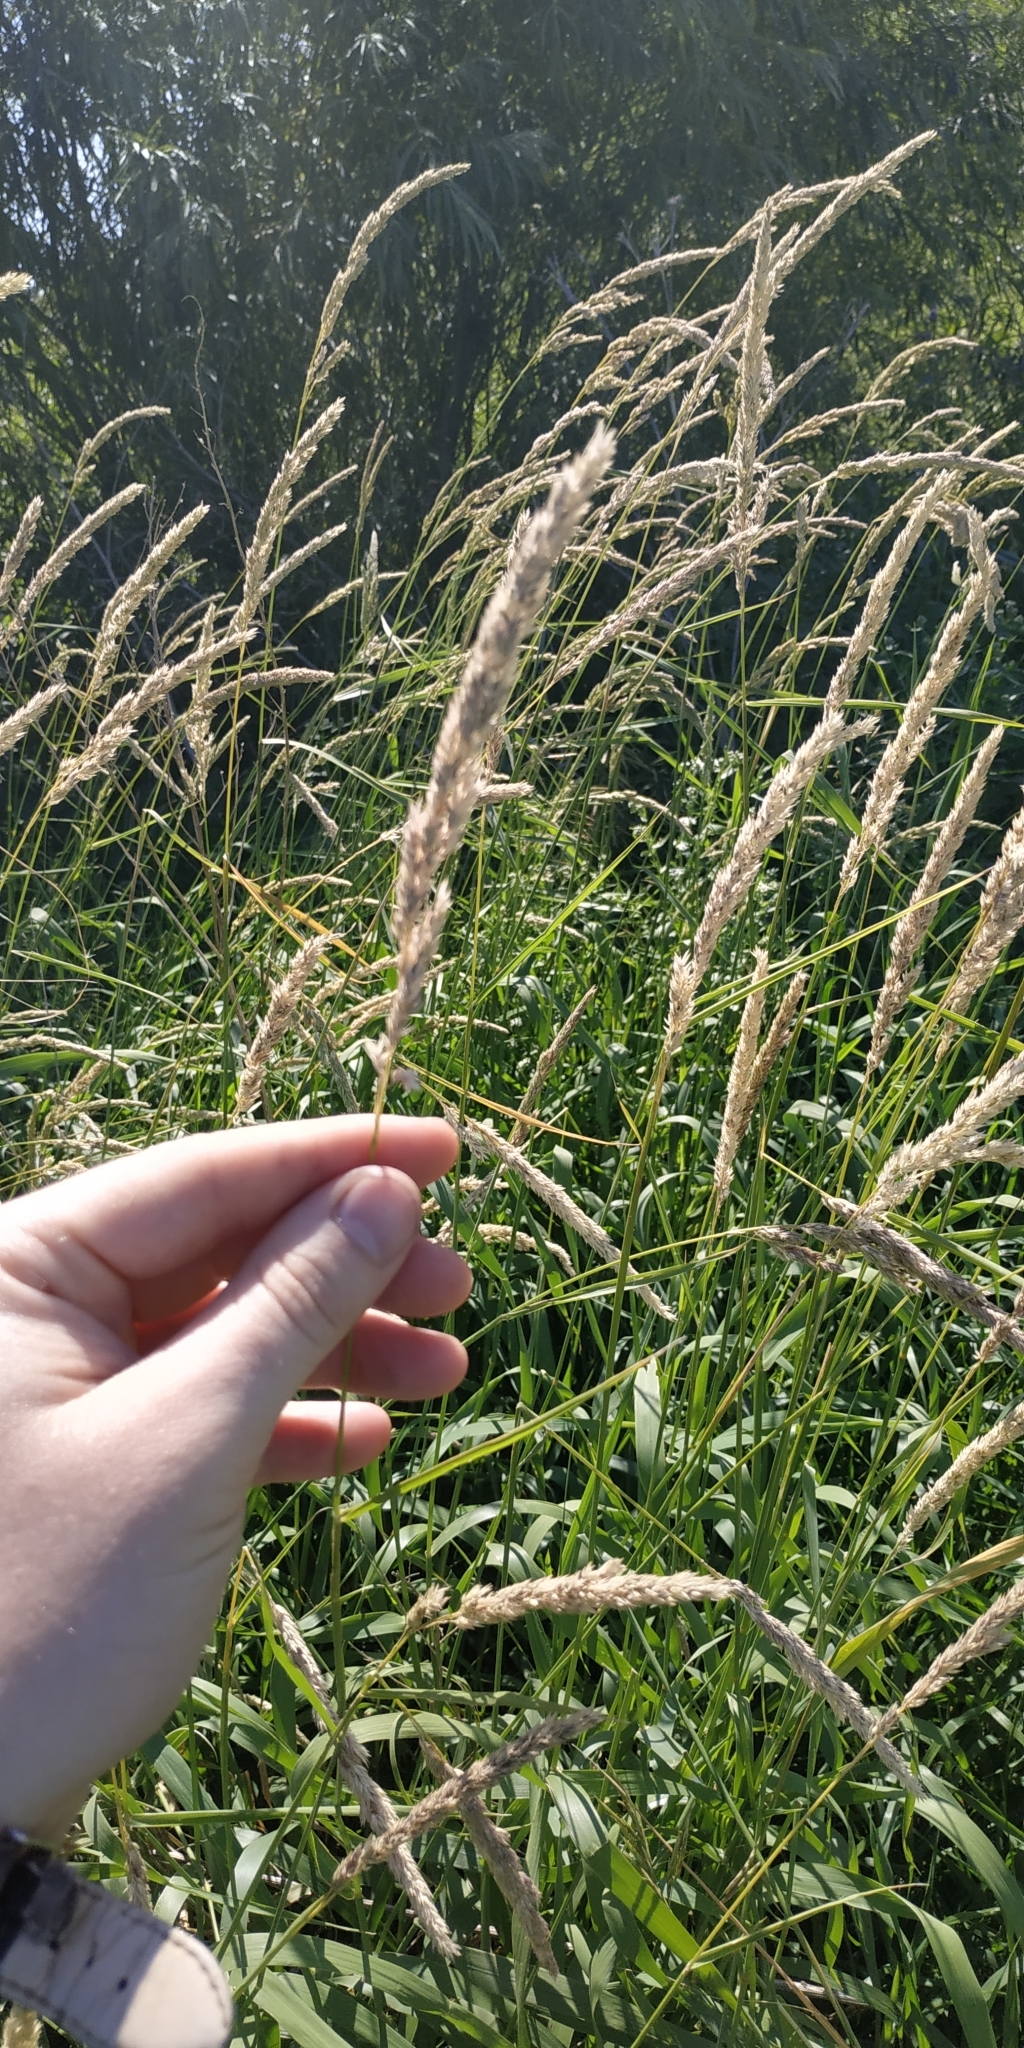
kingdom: Plantae
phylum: Tracheophyta
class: Liliopsida
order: Poales
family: Poaceae
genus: Phalaris
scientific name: Phalaris arundinacea
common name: Reed canary-grass
